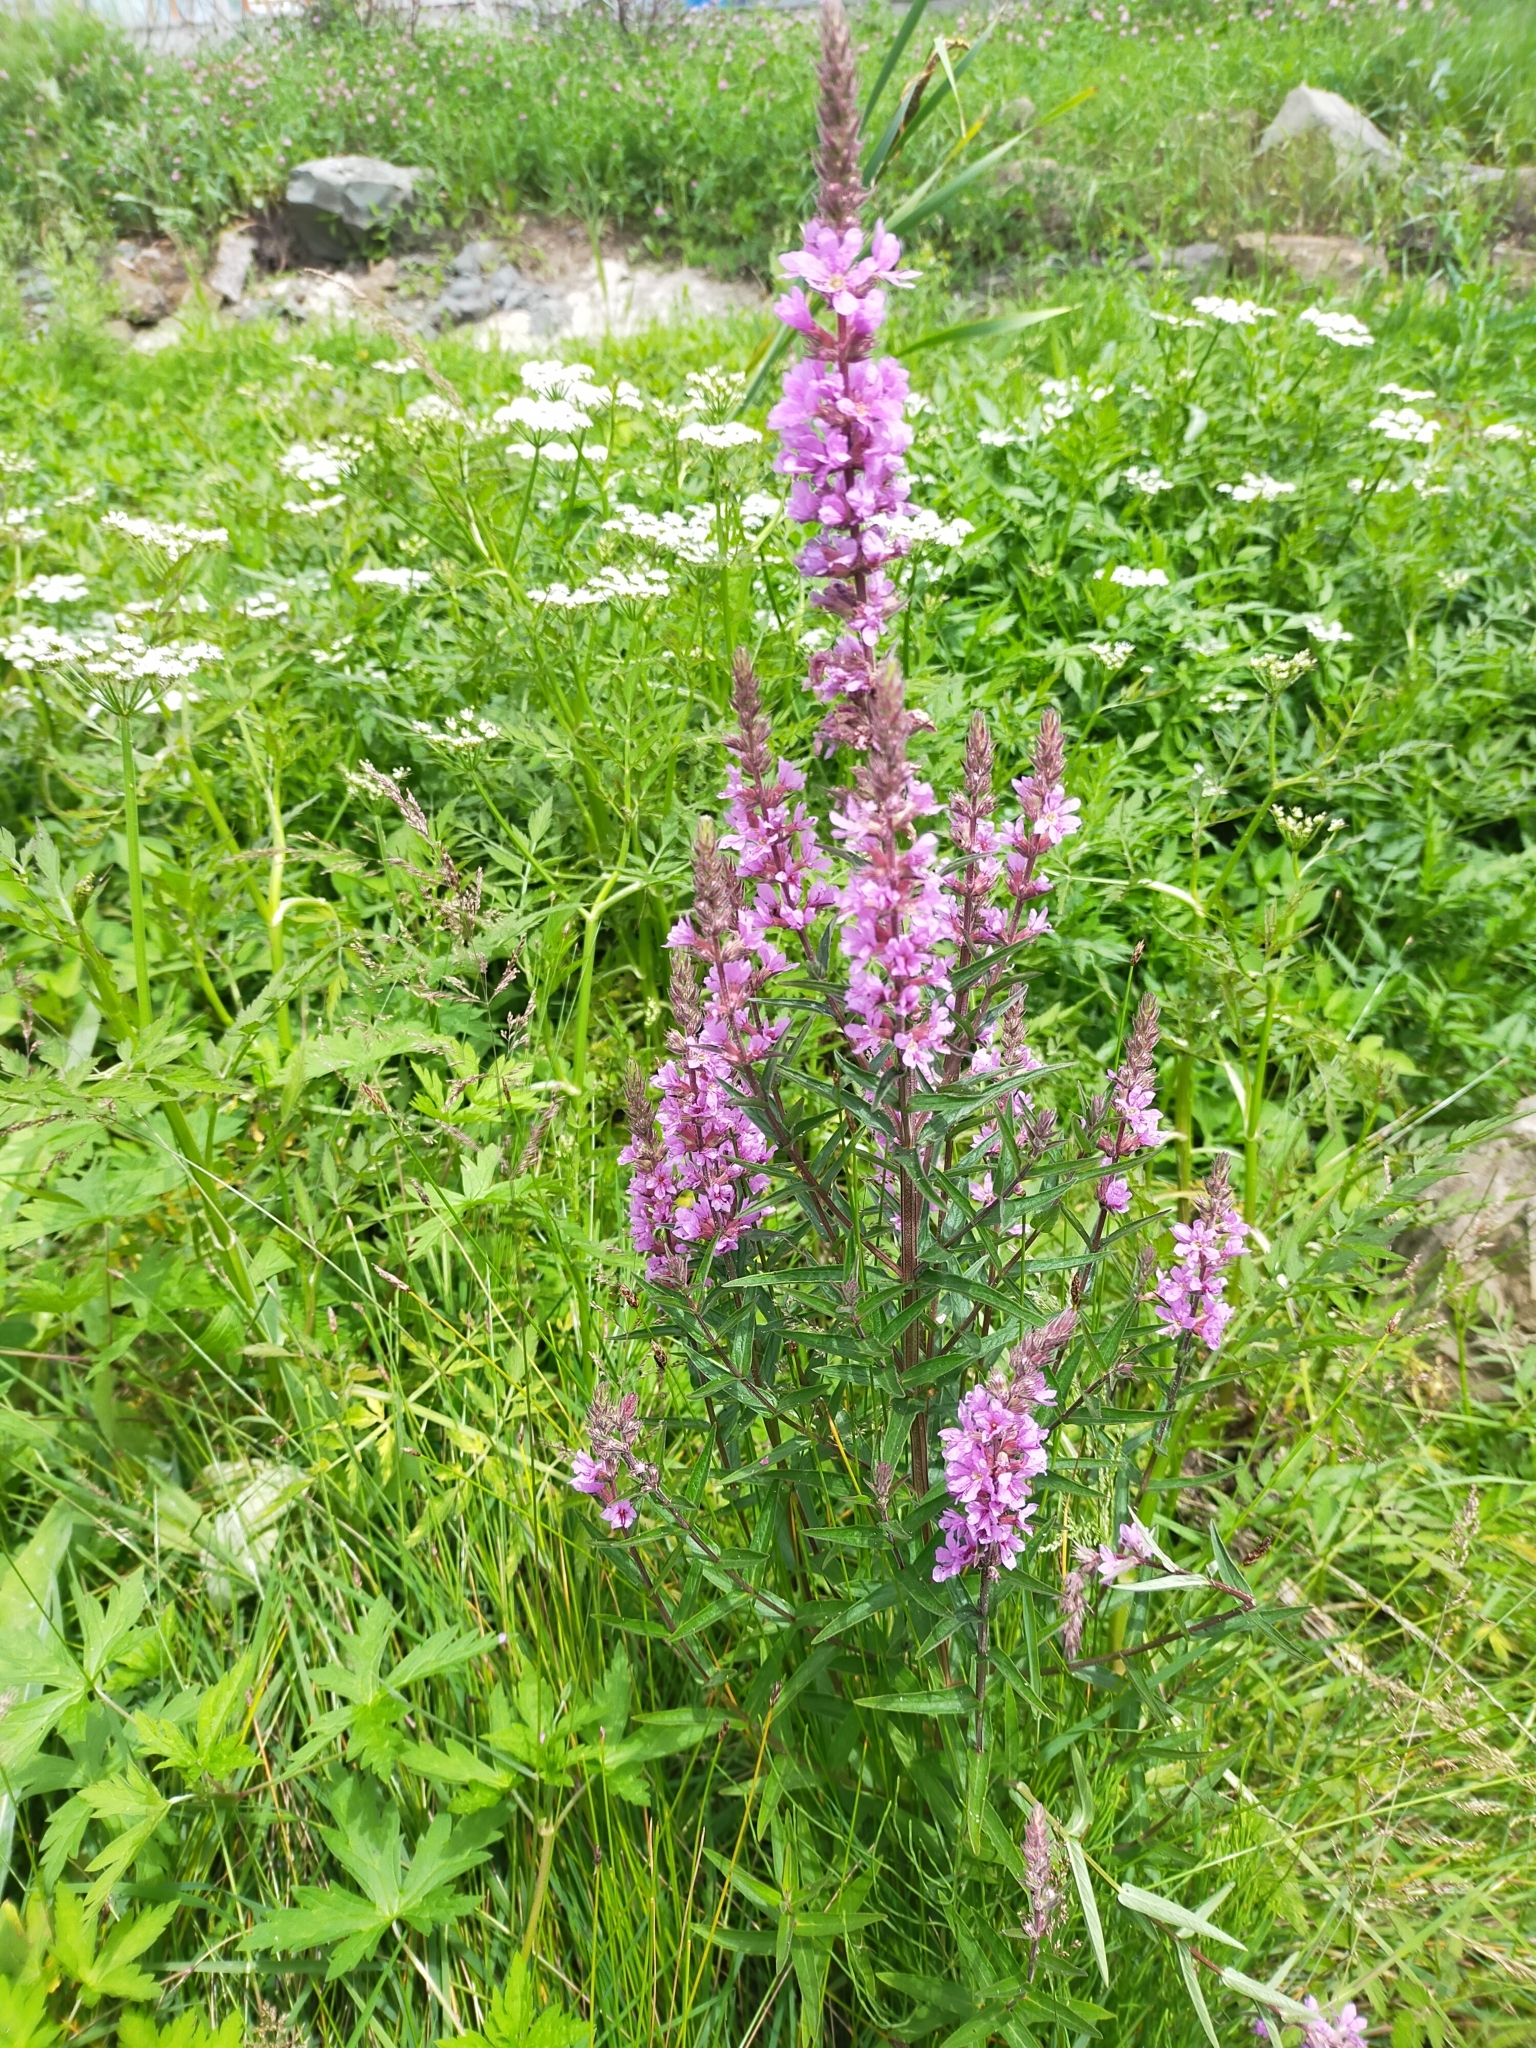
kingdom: Plantae
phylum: Tracheophyta
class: Magnoliopsida
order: Myrtales
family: Lythraceae
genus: Lythrum
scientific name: Lythrum salicaria
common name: Purple loosestrife
